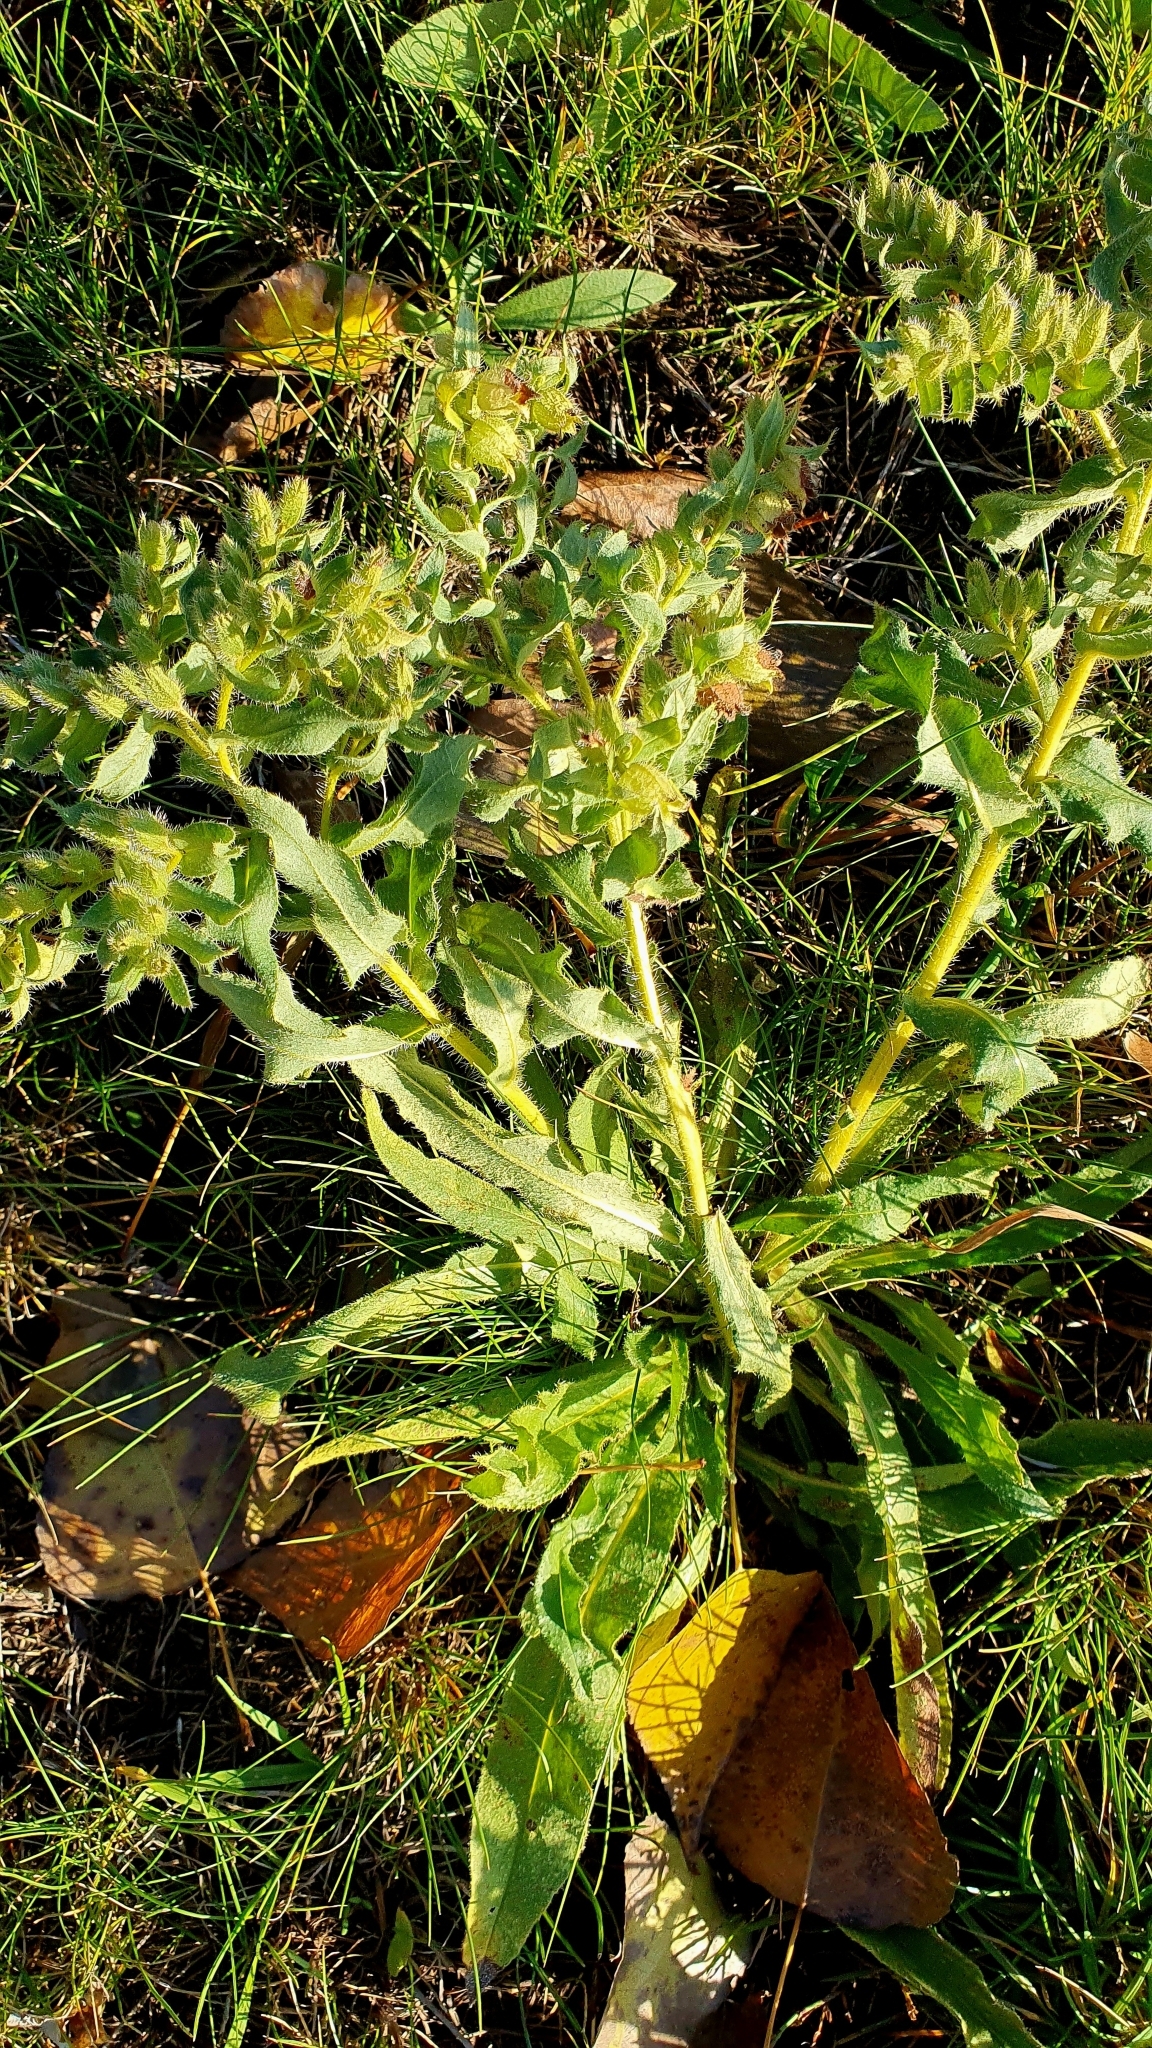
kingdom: Plantae
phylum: Tracheophyta
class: Magnoliopsida
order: Boraginales
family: Boraginaceae
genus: Nonea
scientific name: Nonea pulla
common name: Brown nonea
